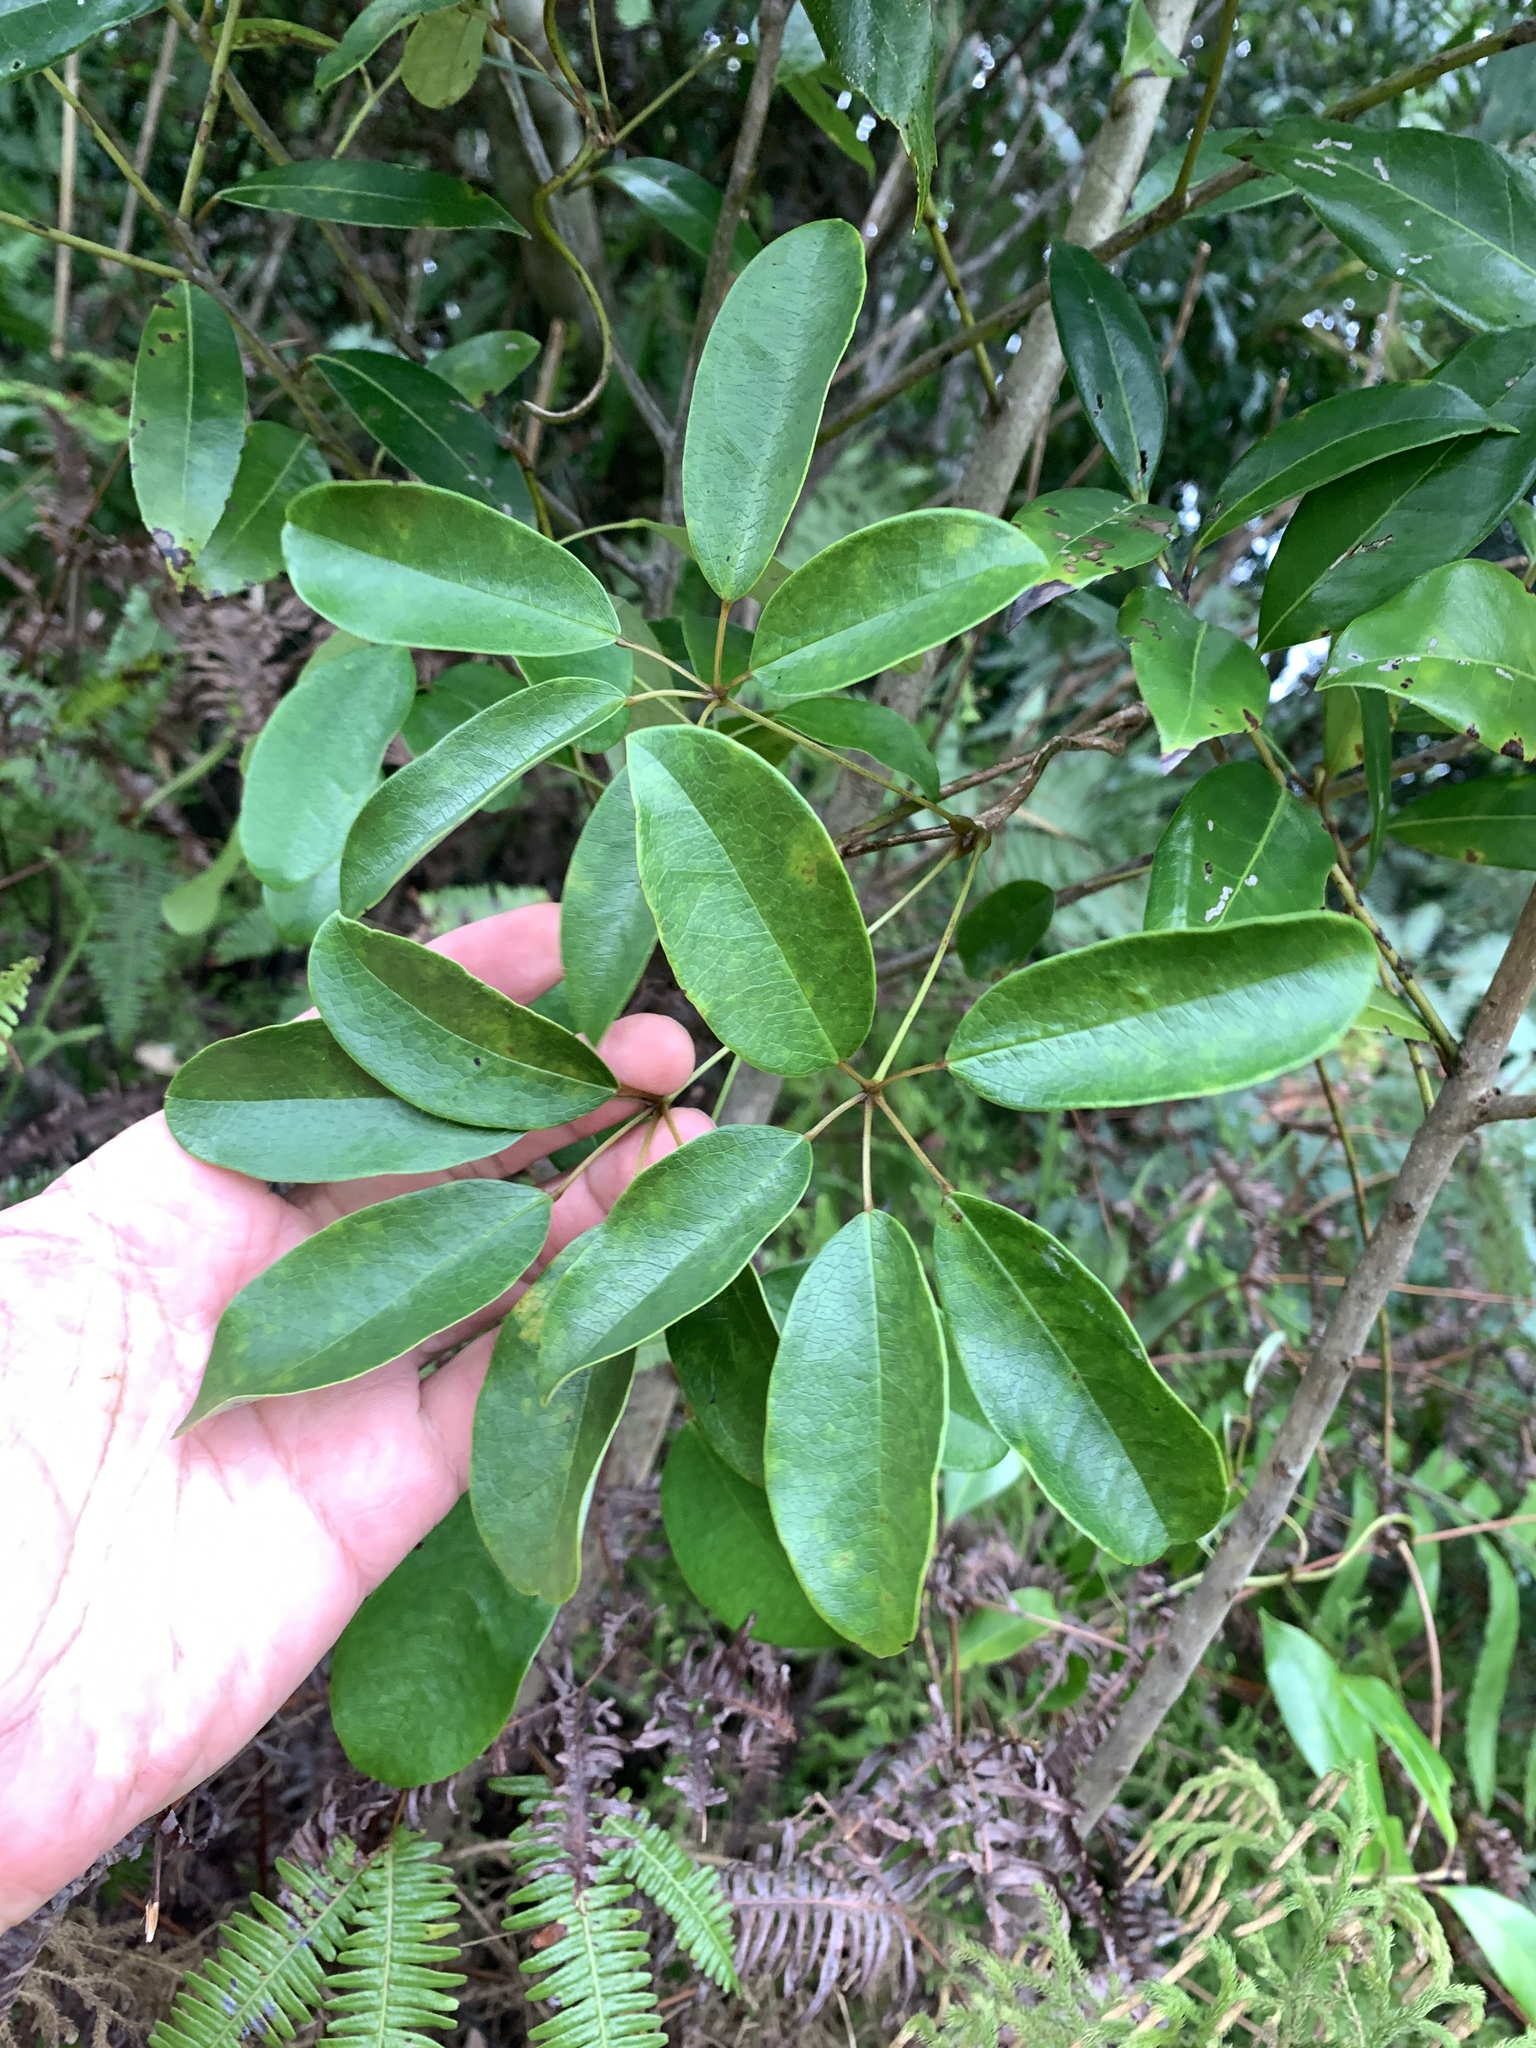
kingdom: Plantae
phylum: Tracheophyta
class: Magnoliopsida
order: Ranunculales
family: Lardizabalaceae
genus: Stauntonia
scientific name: Stauntonia obovatifoliola
